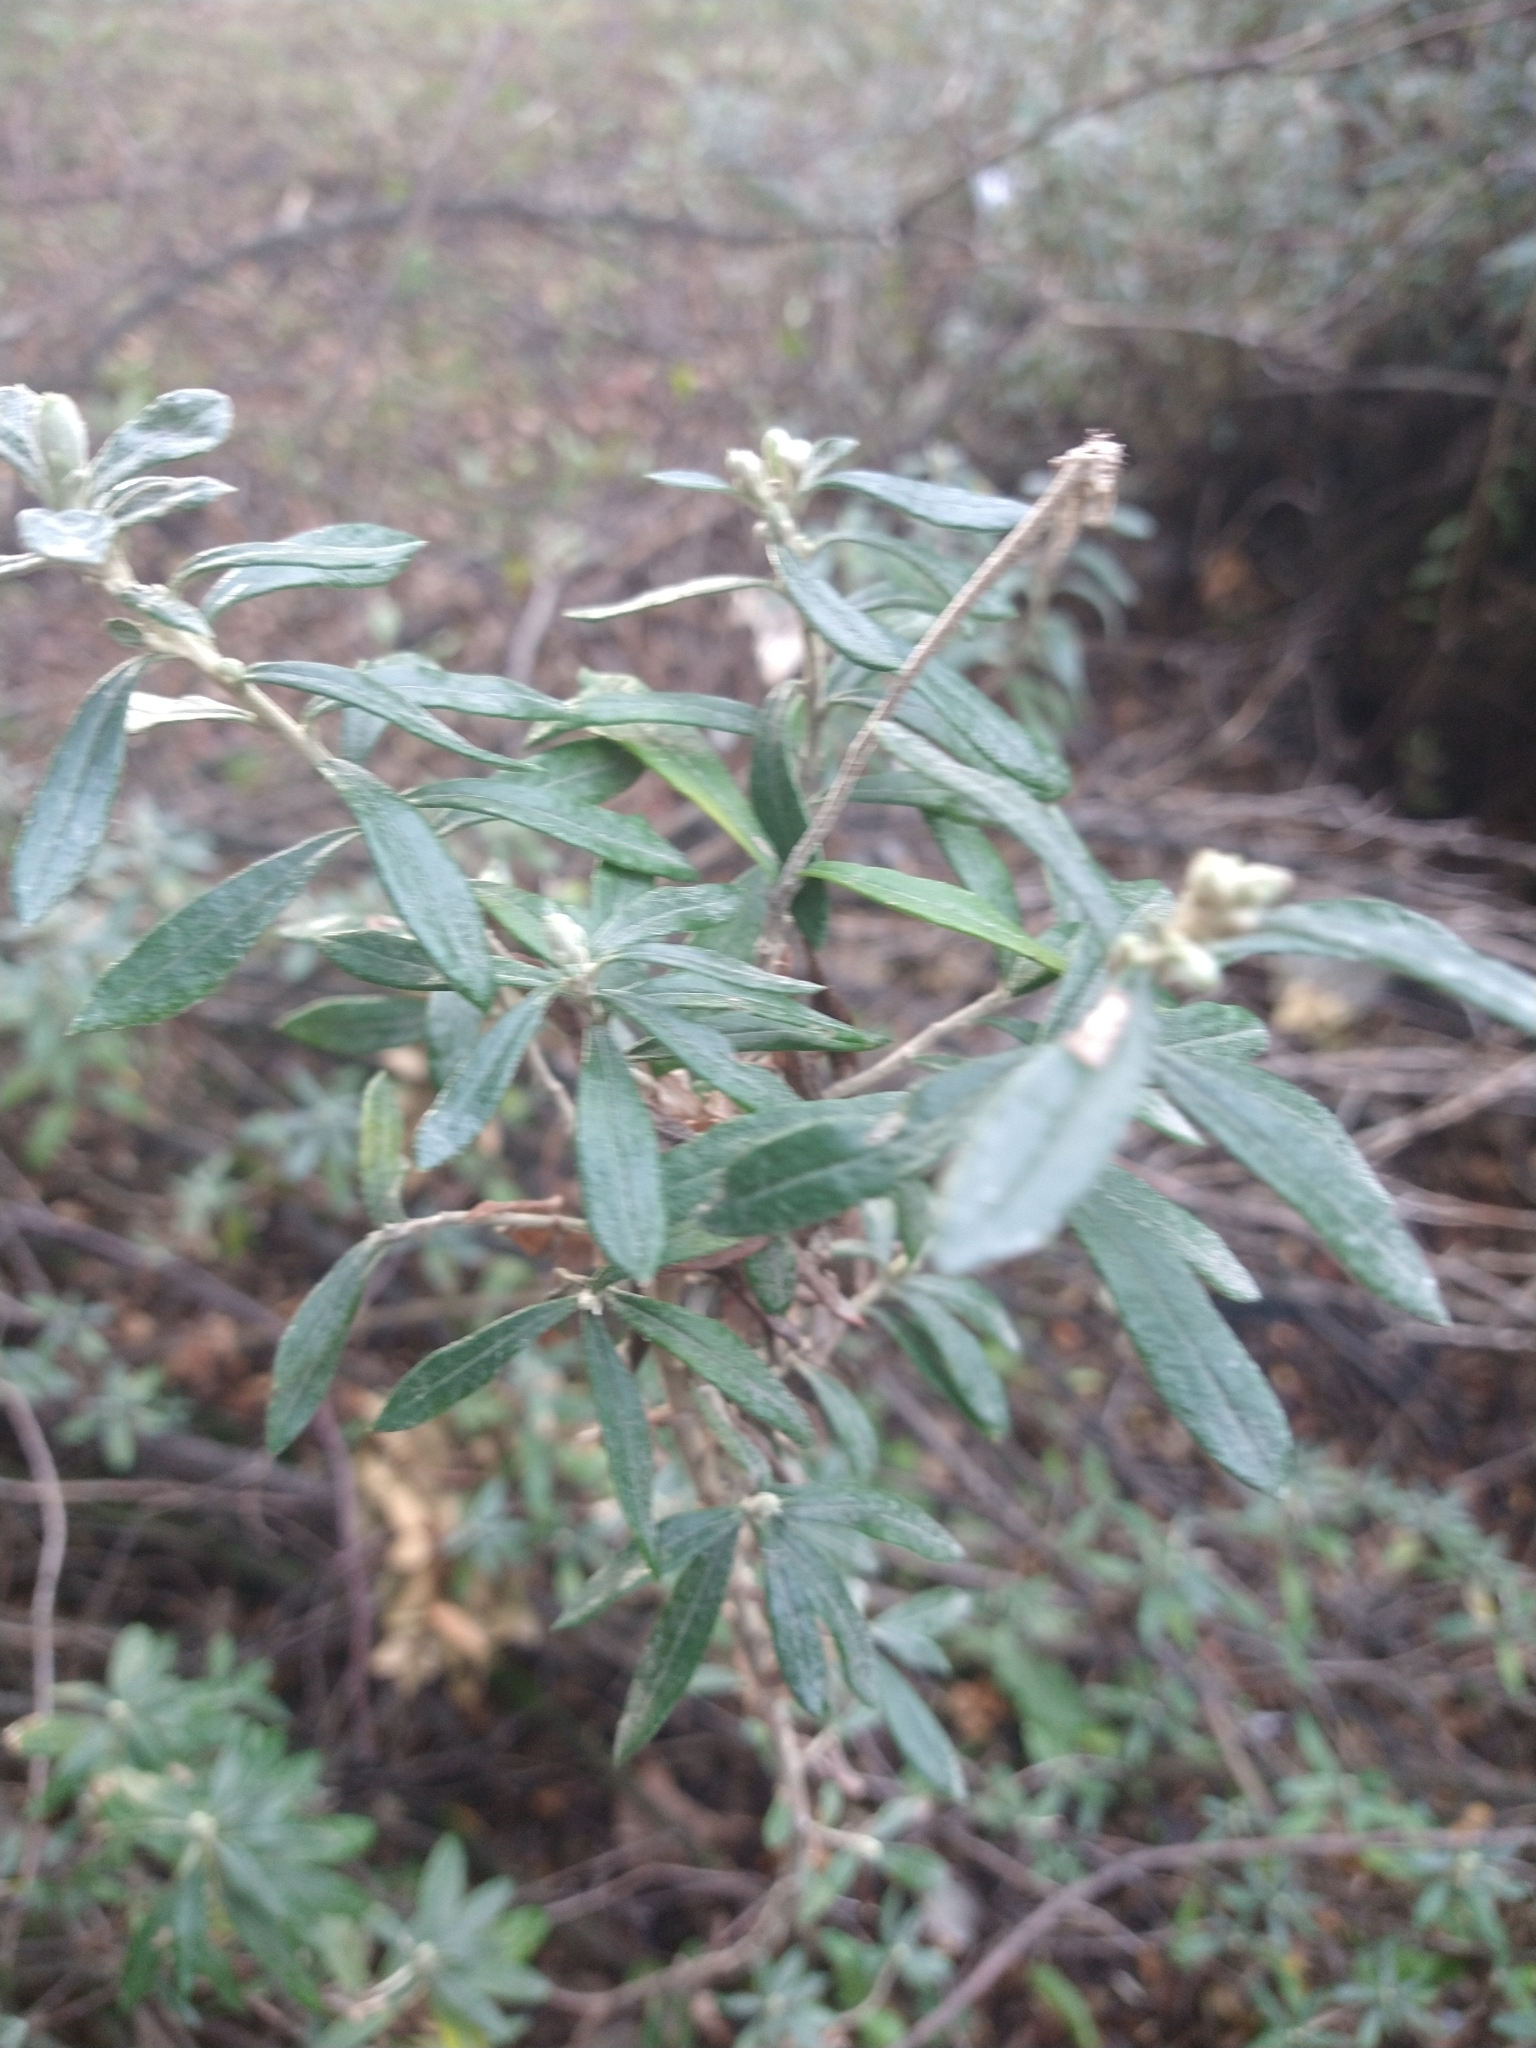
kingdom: Plantae
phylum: Tracheophyta
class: Magnoliopsida
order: Asterales
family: Asteraceae
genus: Chiliotrichum
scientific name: Chiliotrichum diffusum
